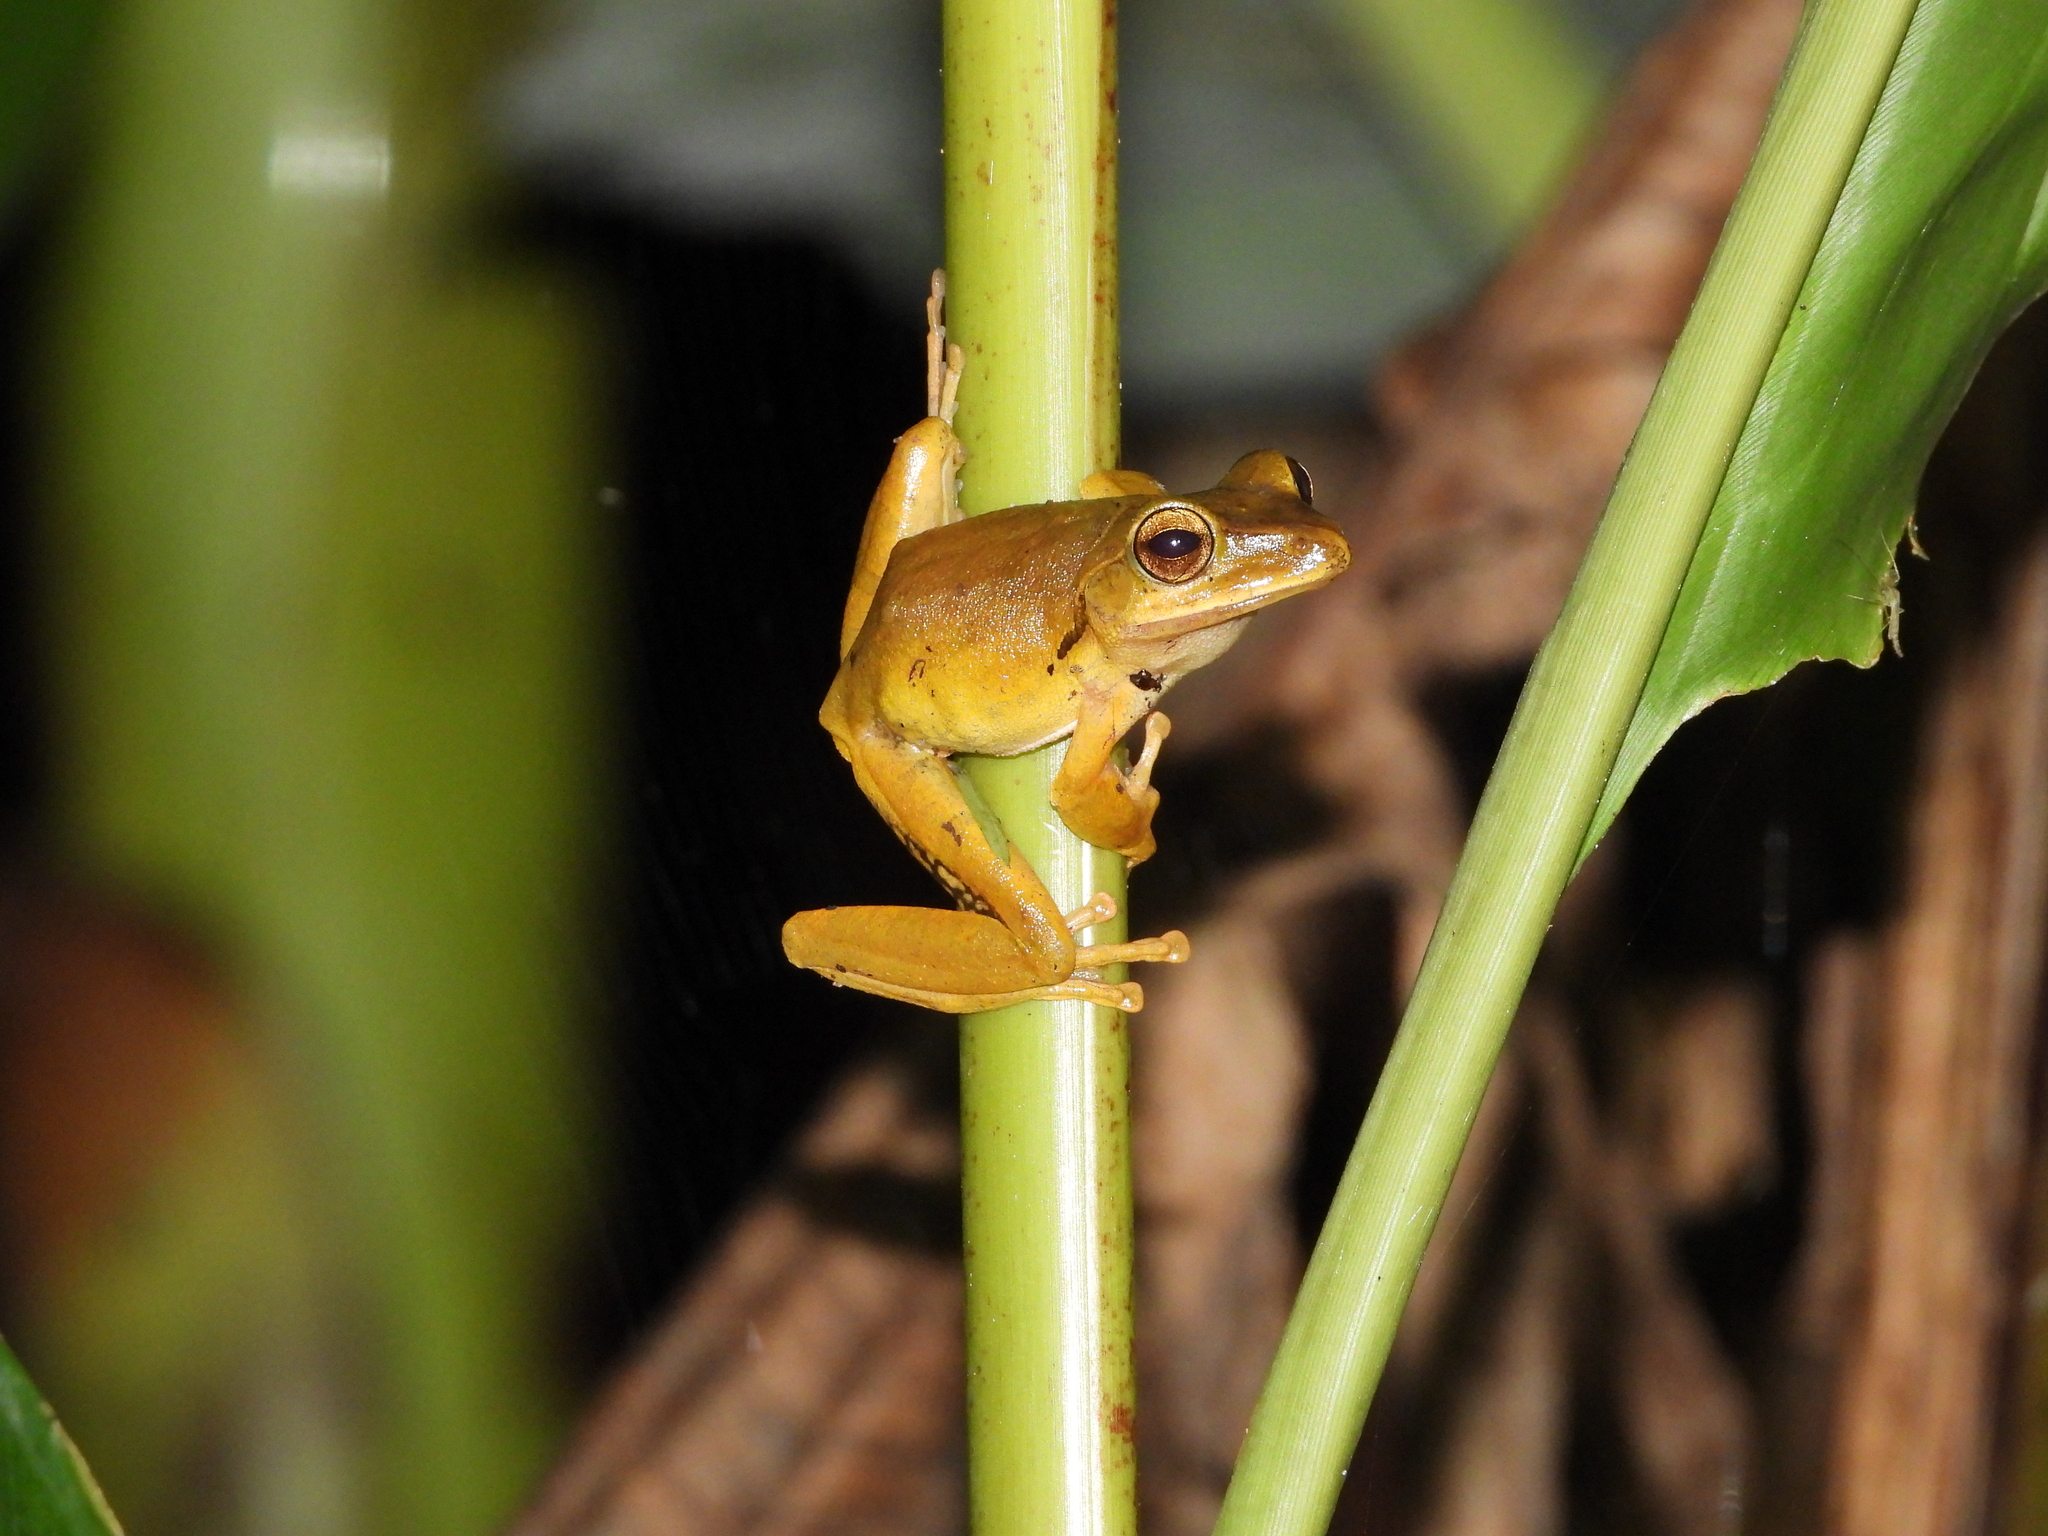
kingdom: Animalia
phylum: Chordata
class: Amphibia
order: Anura
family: Rhacophoridae
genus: Polypedates
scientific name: Polypedates megacephalus
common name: Hong kong whipping frog
